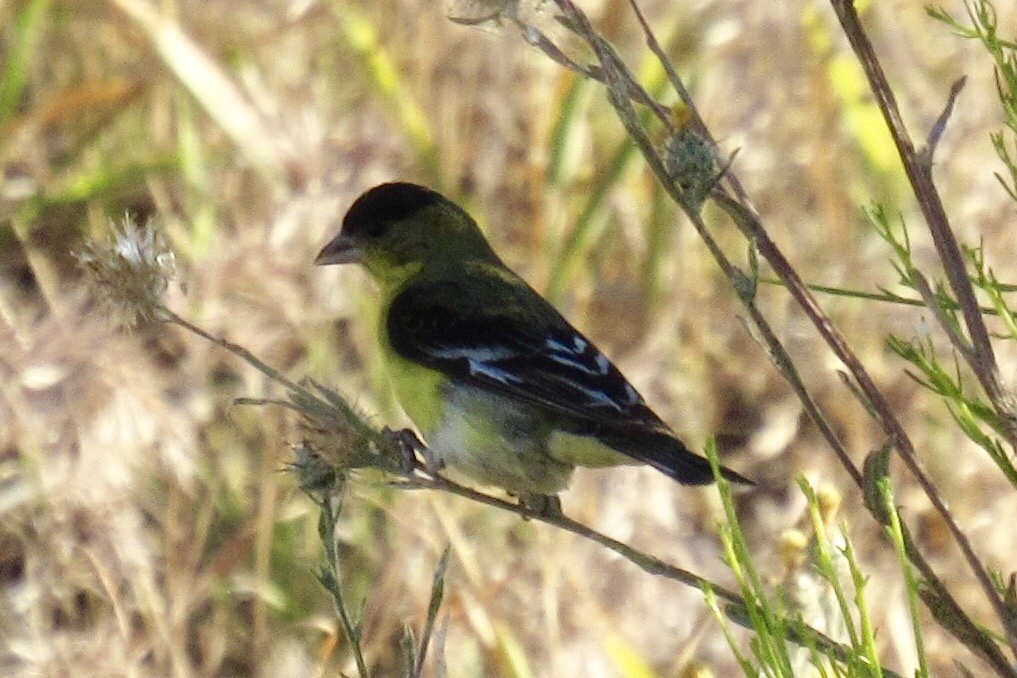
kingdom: Animalia
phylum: Chordata
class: Aves
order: Passeriformes
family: Fringillidae
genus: Spinus
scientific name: Spinus psaltria
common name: Lesser goldfinch
